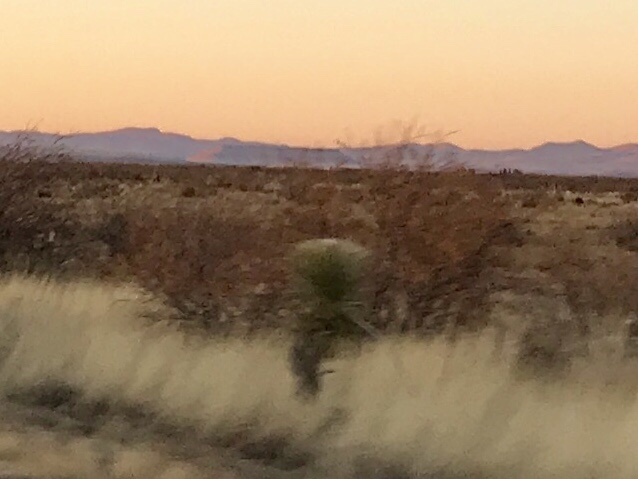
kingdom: Plantae
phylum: Tracheophyta
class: Liliopsida
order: Asparagales
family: Asparagaceae
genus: Yucca
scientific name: Yucca elata
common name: Palmella
